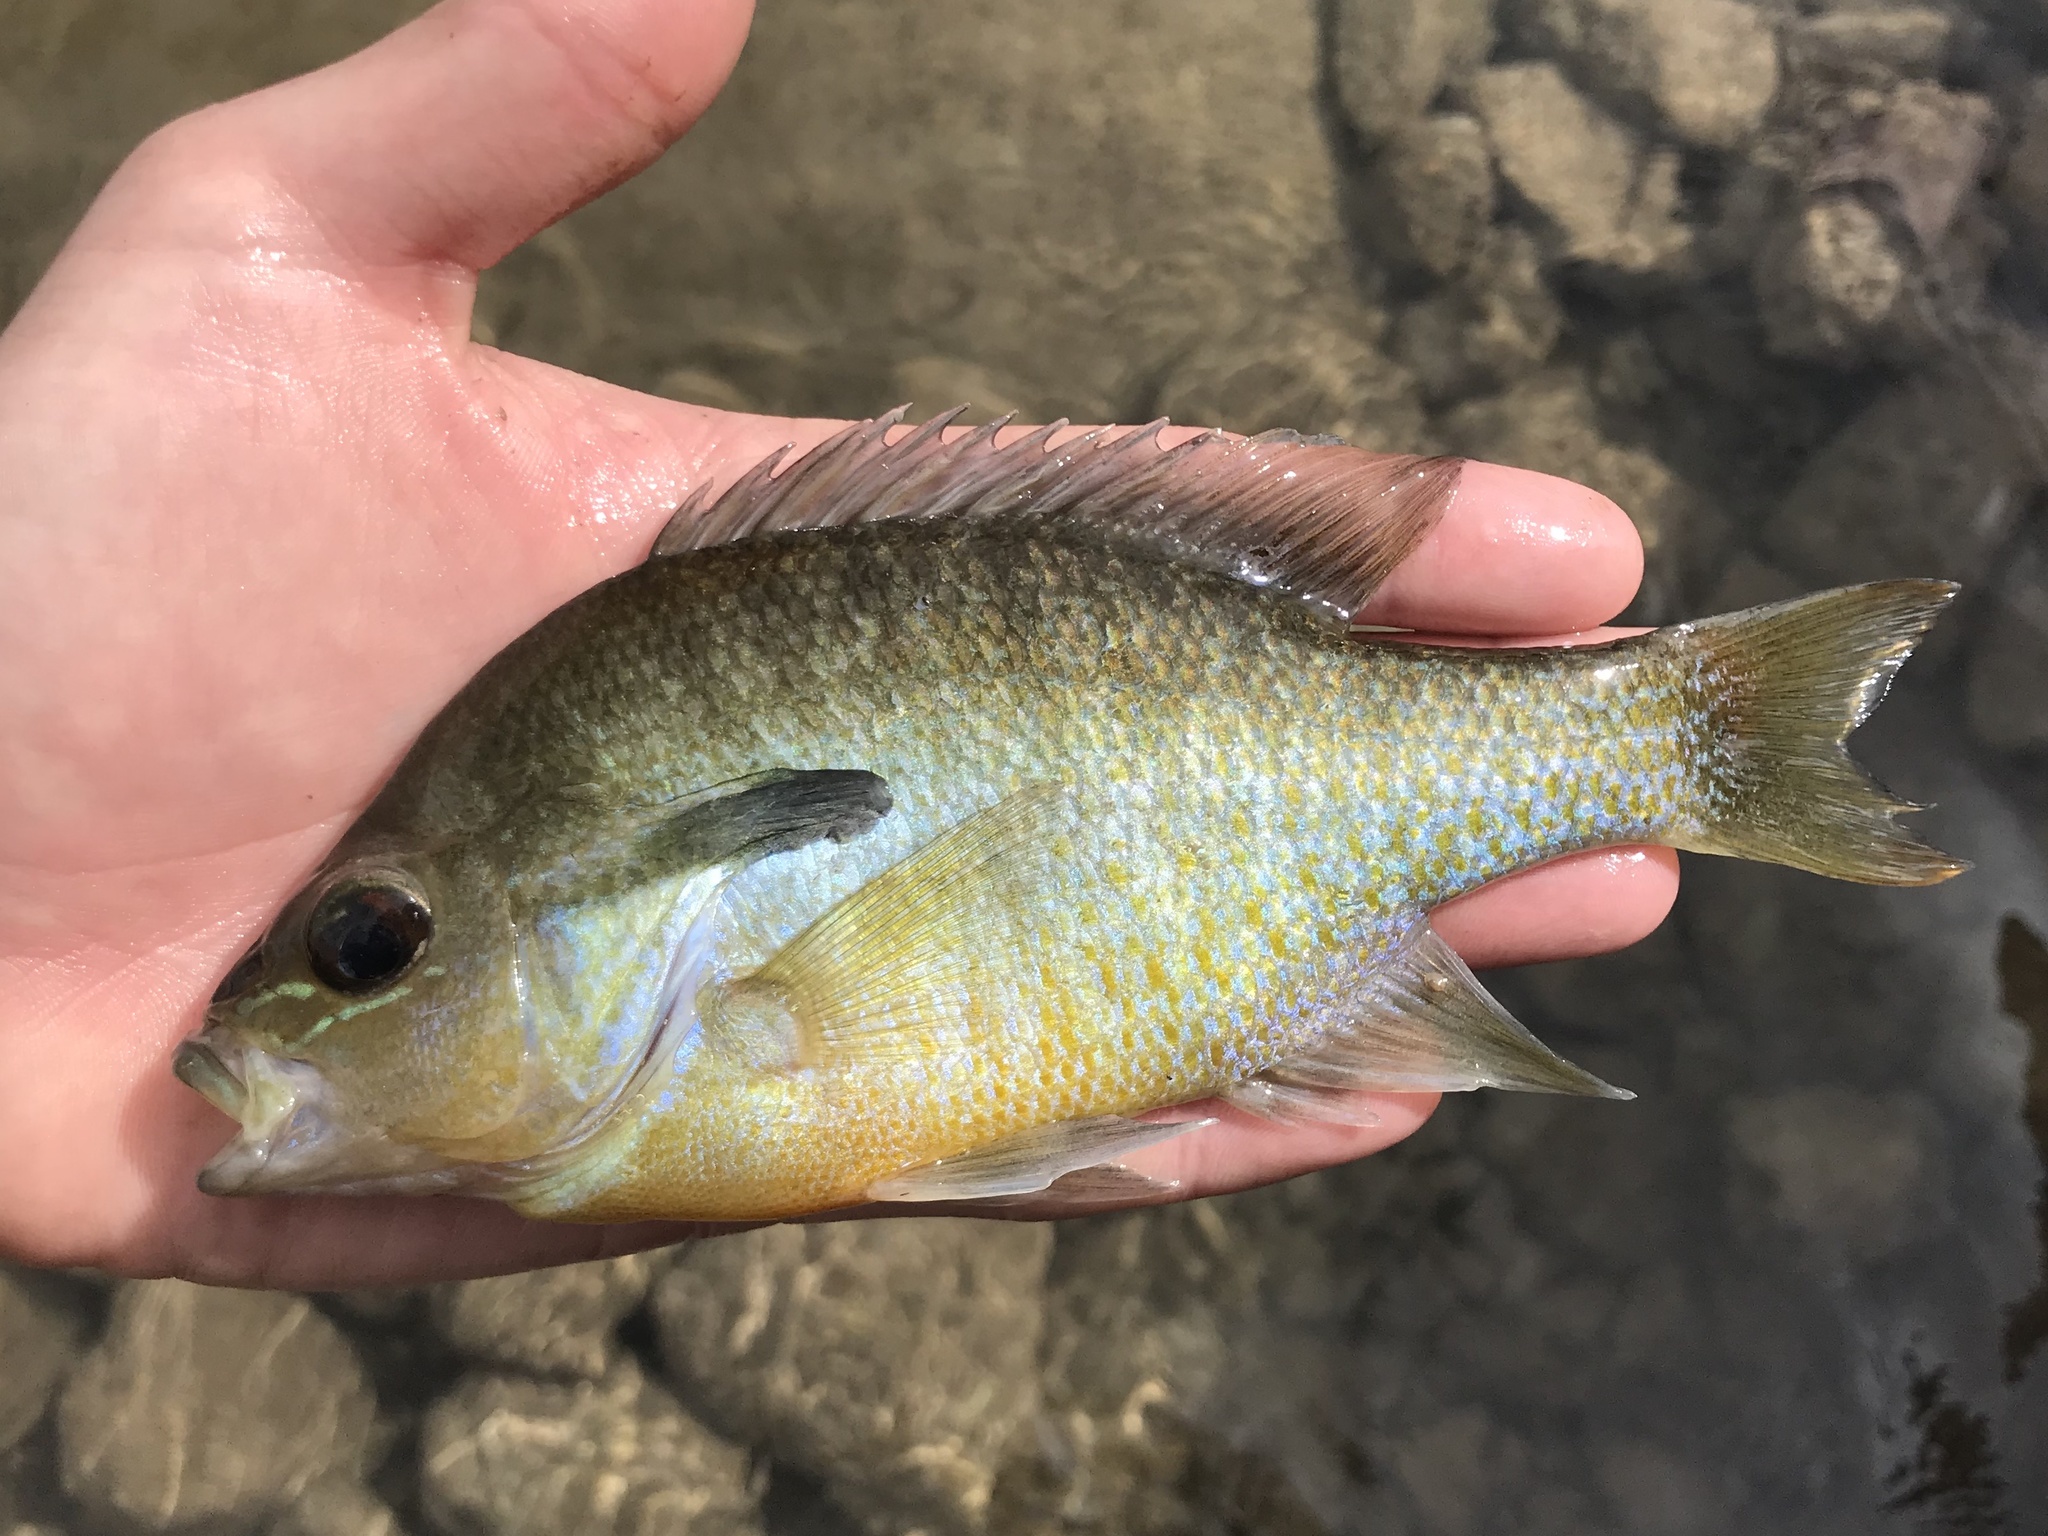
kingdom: Animalia
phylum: Chordata
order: Perciformes
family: Centrarchidae
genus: Lepomis
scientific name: Lepomis auritus
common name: Redbreast sunfish
